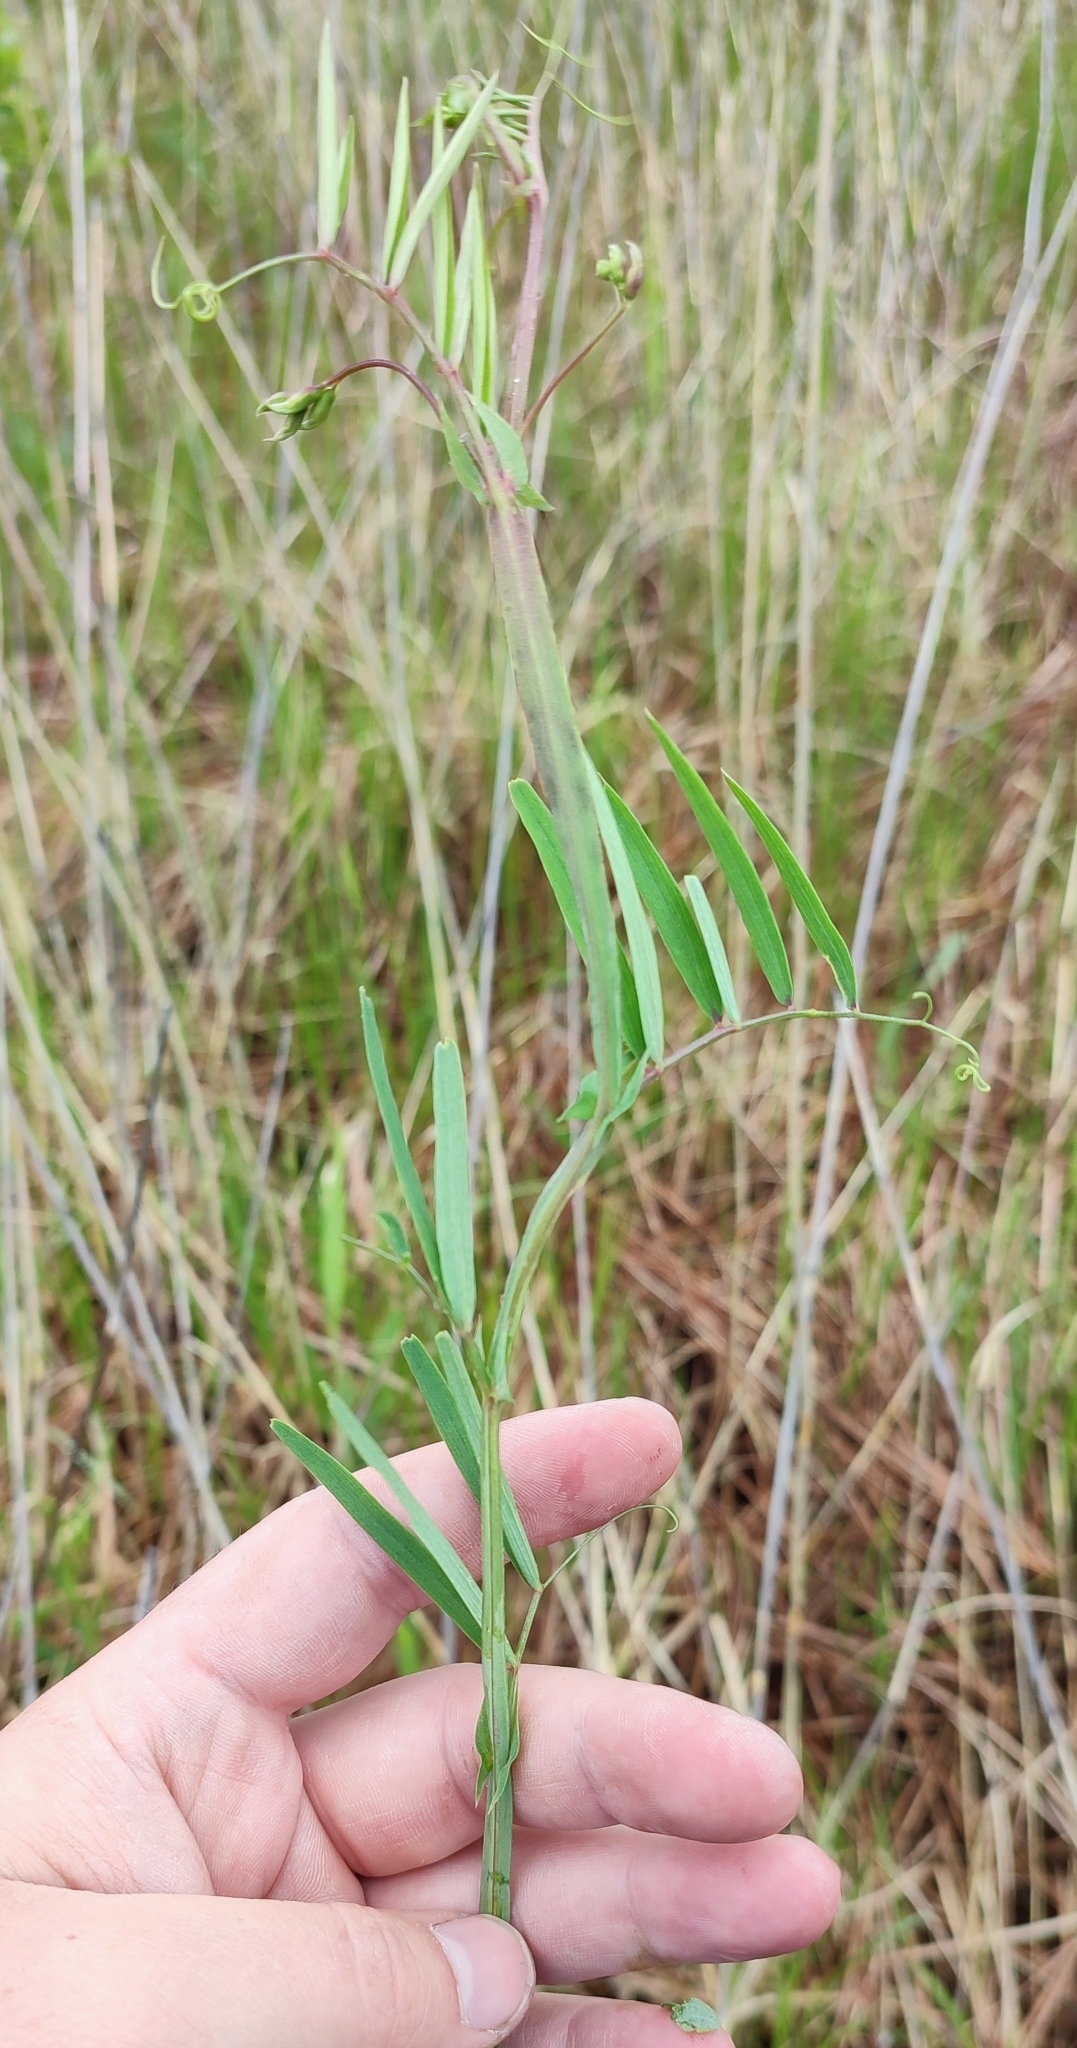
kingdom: Plantae
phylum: Tracheophyta
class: Magnoliopsida
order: Fabales
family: Fabaceae
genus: Lathyrus
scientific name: Lathyrus palustris
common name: Marsh pea
